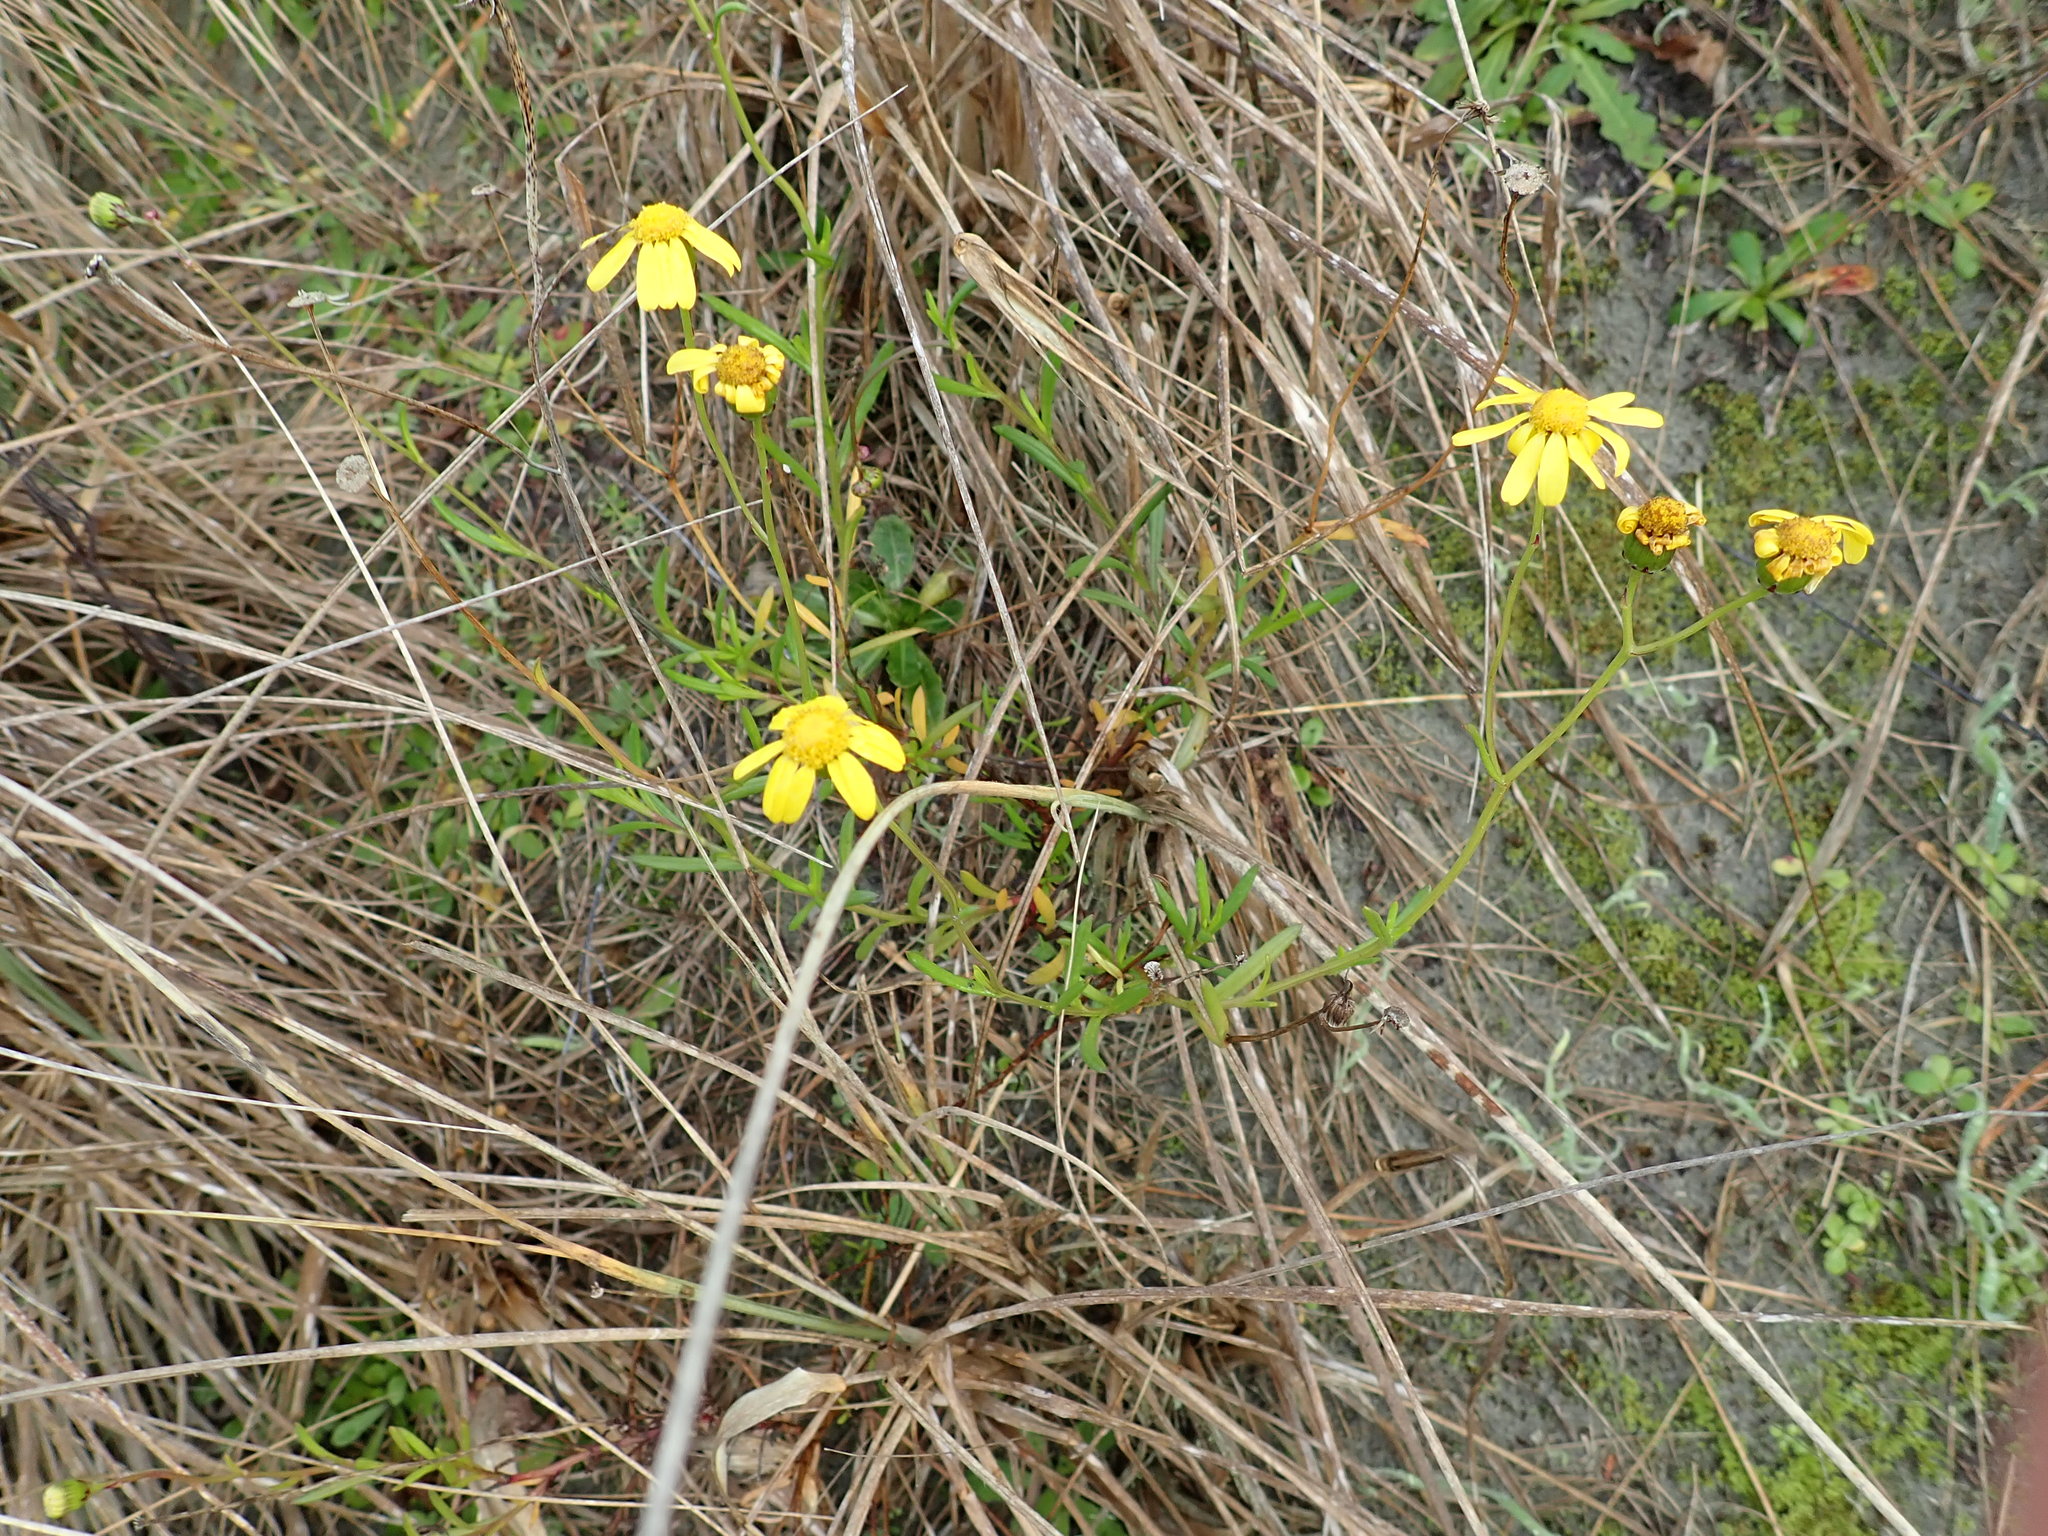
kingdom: Plantae
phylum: Tracheophyta
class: Magnoliopsida
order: Asterales
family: Asteraceae
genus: Senecio
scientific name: Senecio skirrhodon
